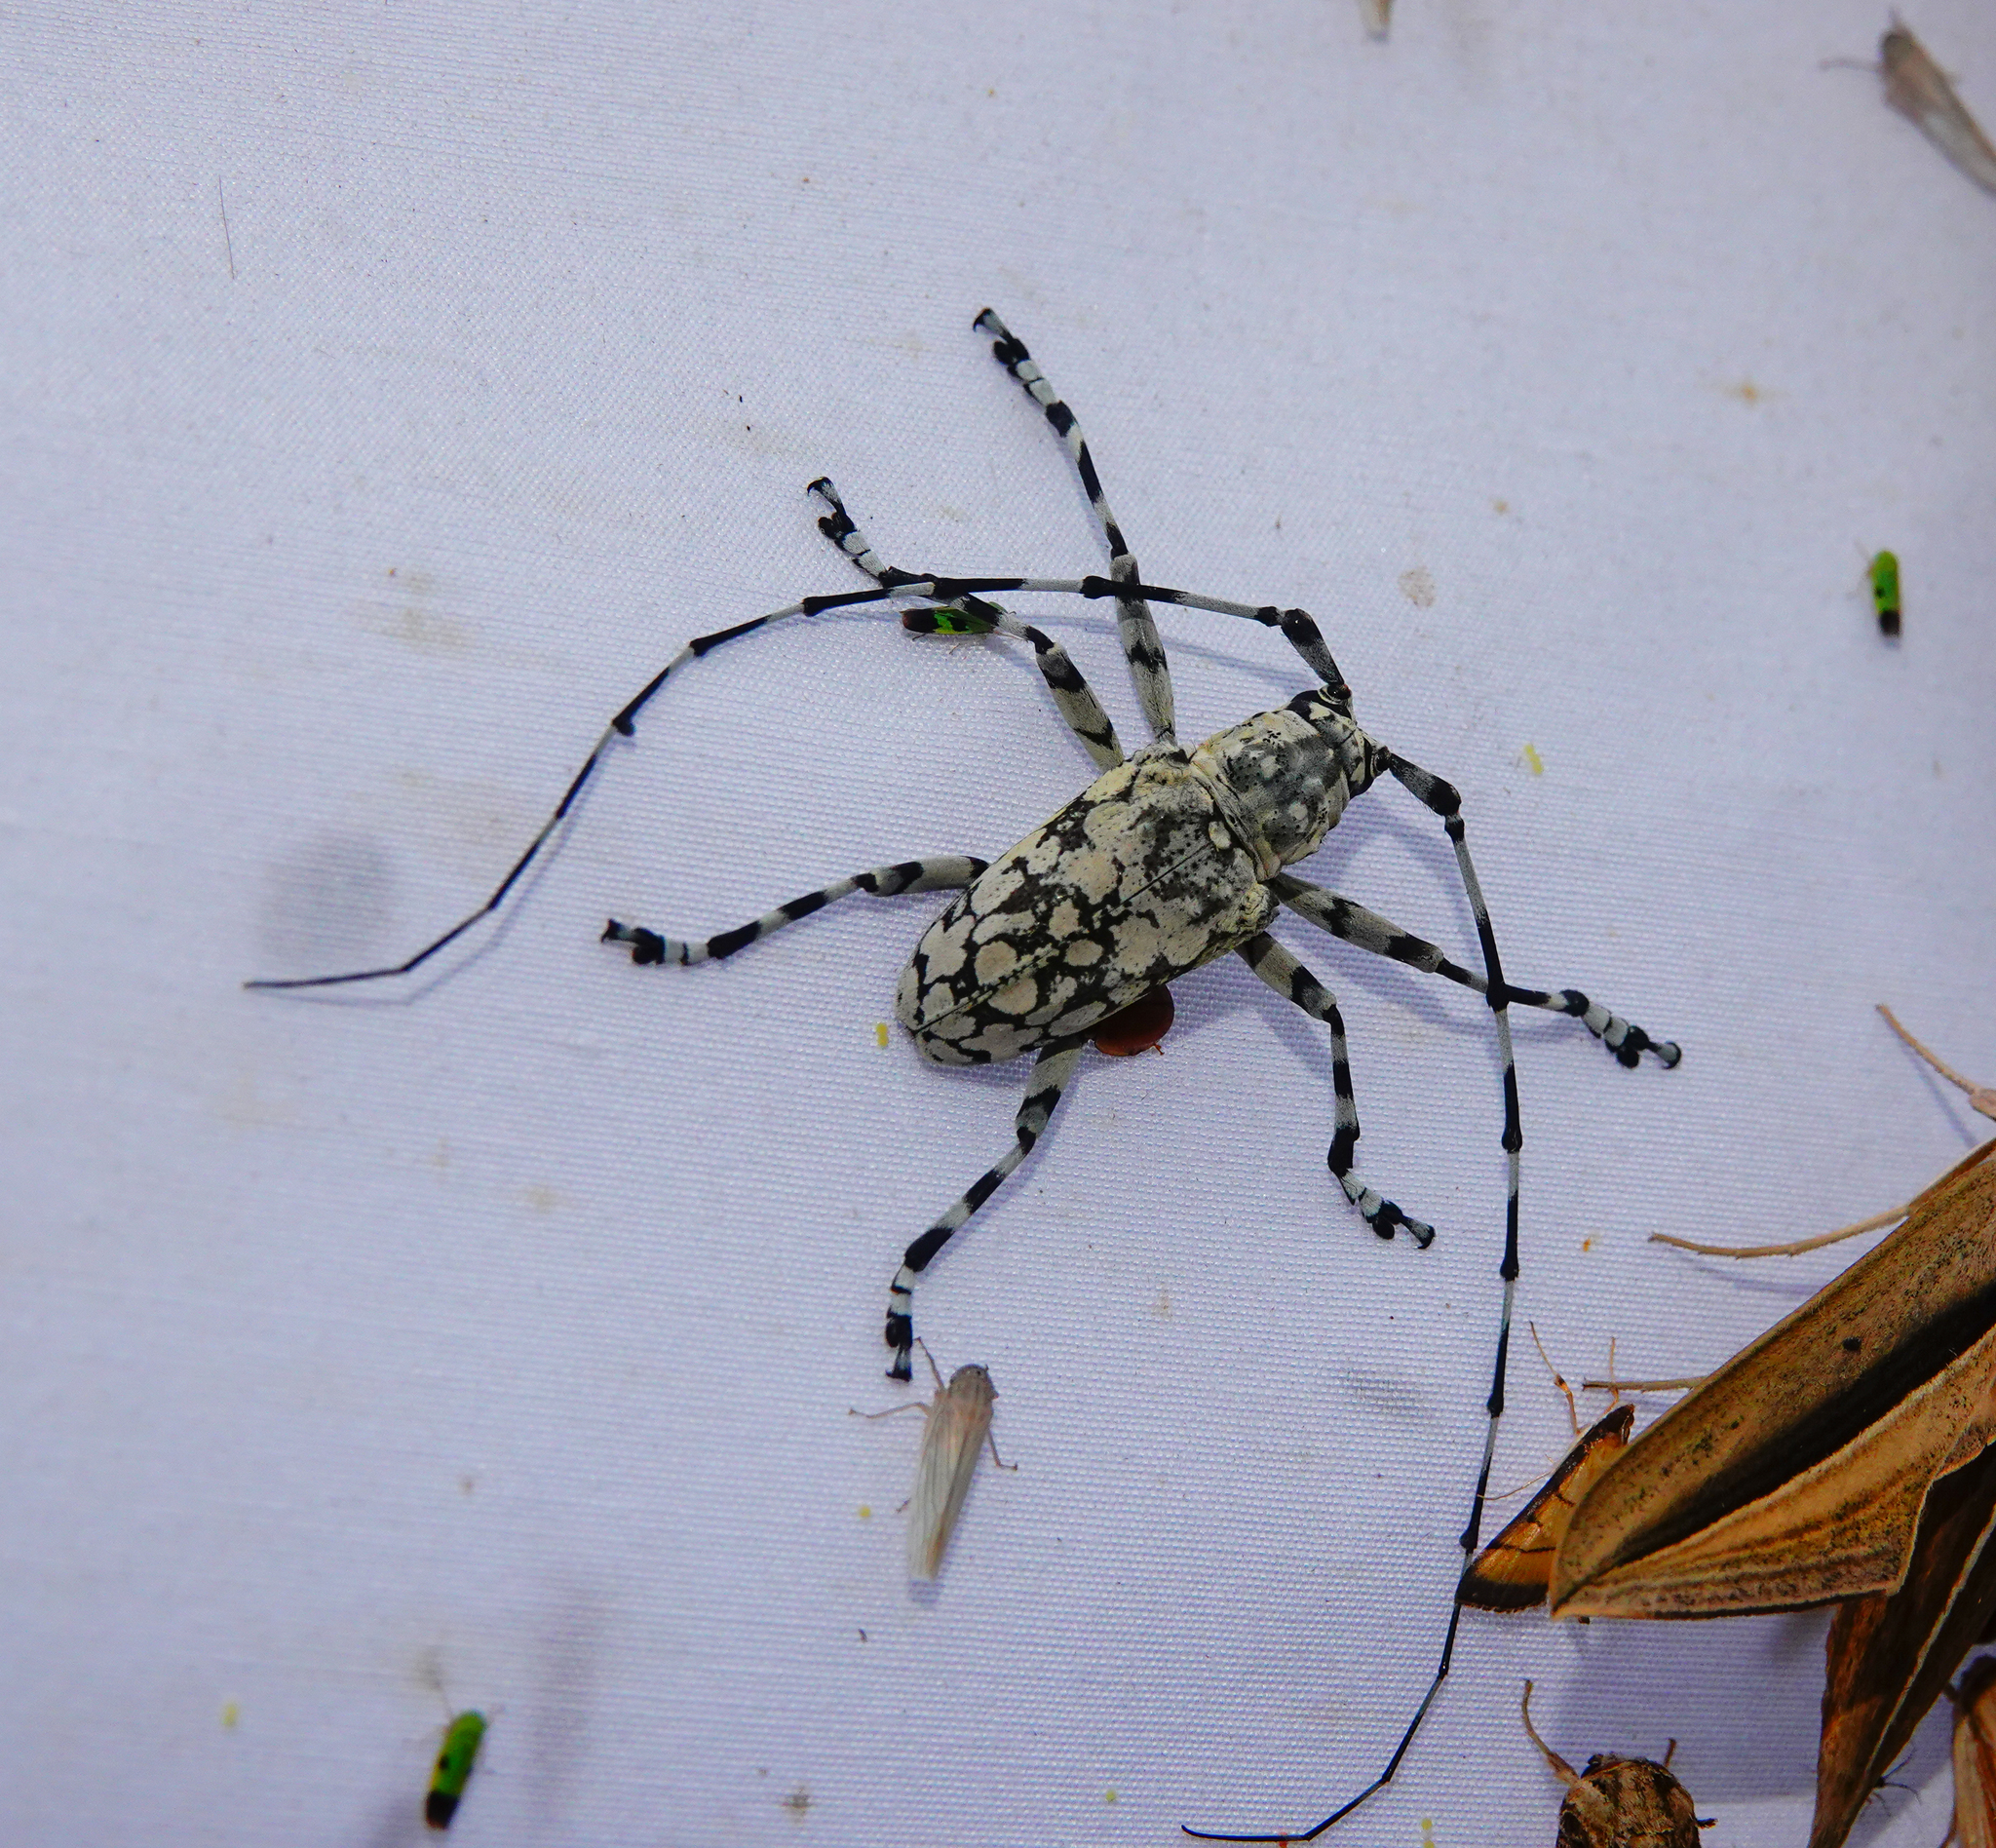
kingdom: Animalia
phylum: Arthropoda
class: Insecta
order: Coleoptera
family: Cerambycidae
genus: Palimna
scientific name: Palimna annulata
